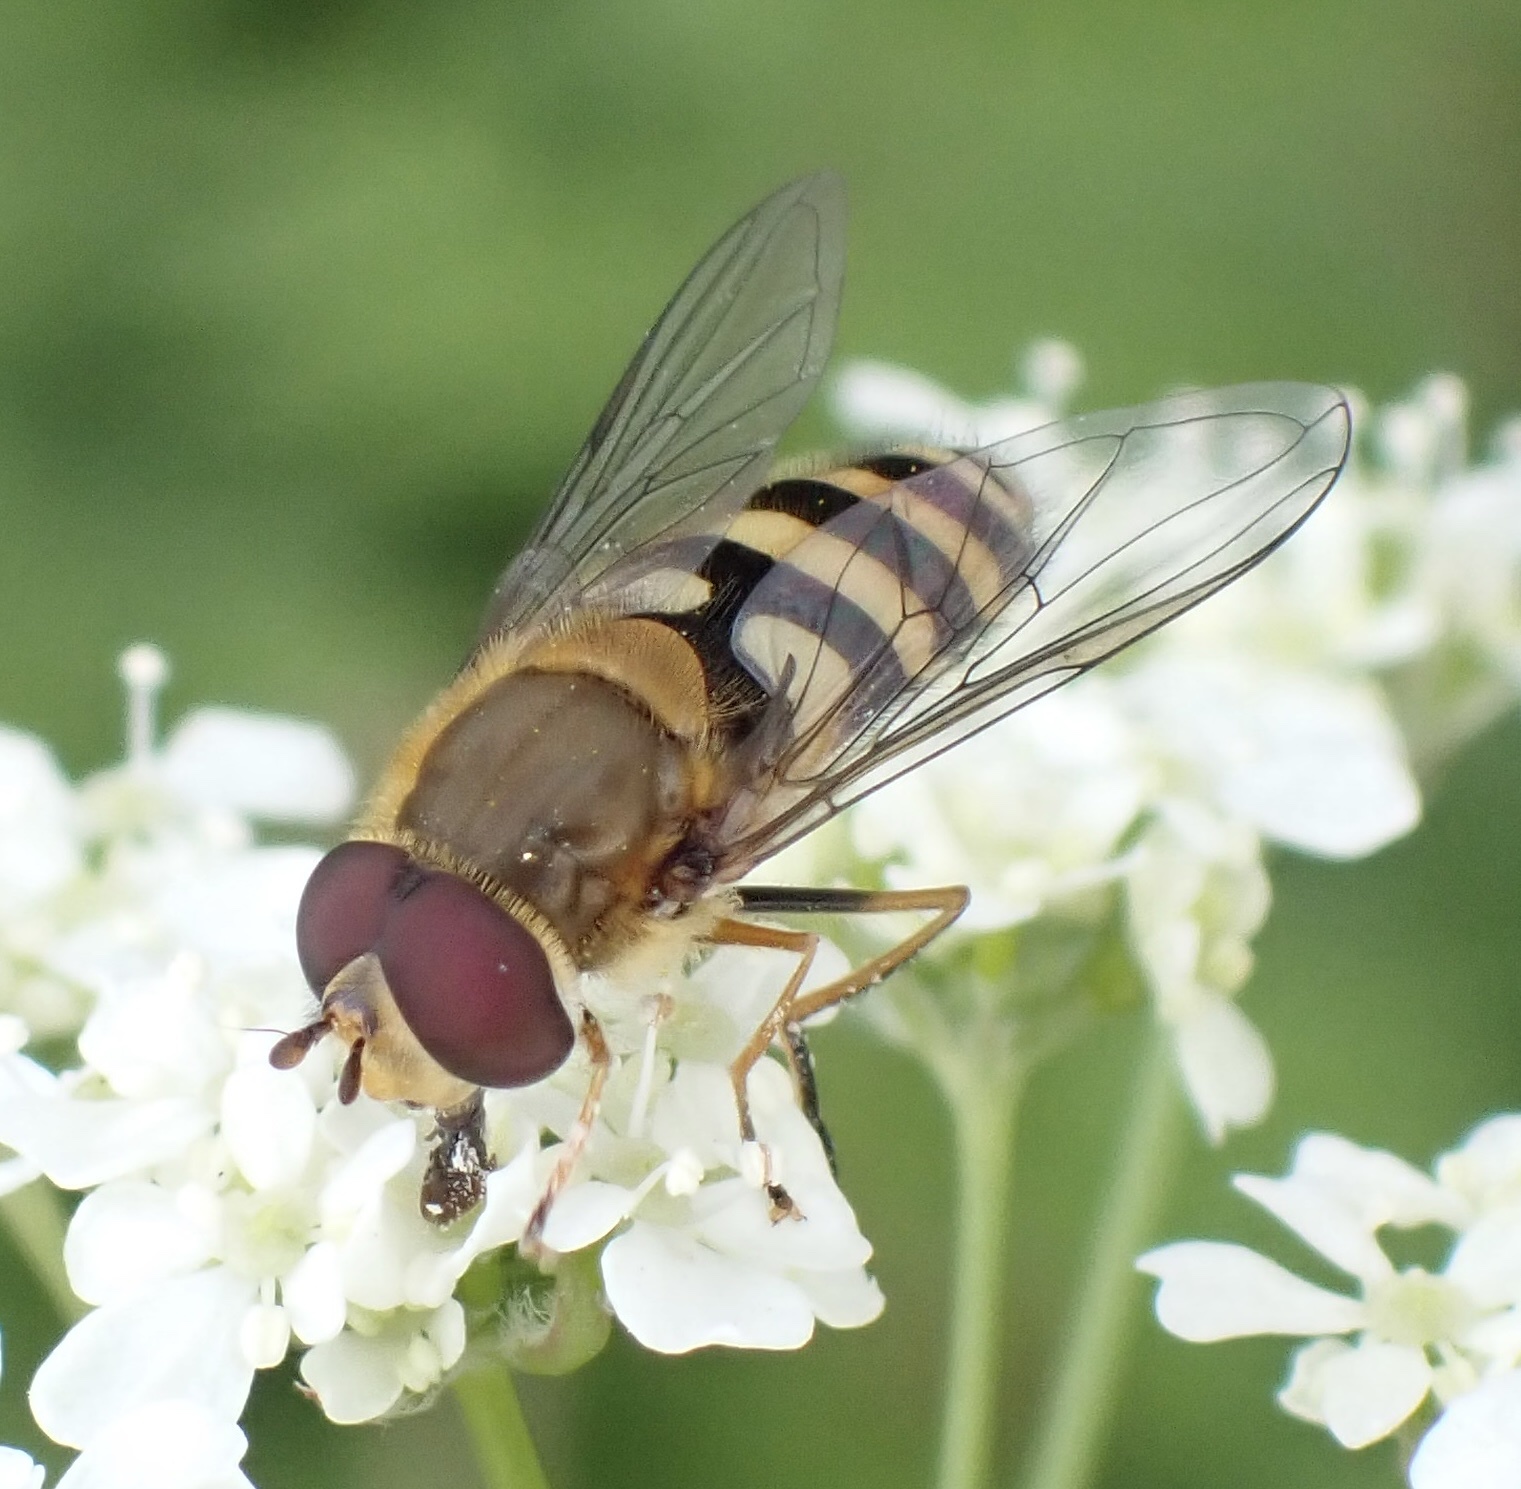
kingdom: Animalia
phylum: Arthropoda
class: Insecta
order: Diptera
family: Syrphidae
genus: Syrphus
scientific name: Syrphus
